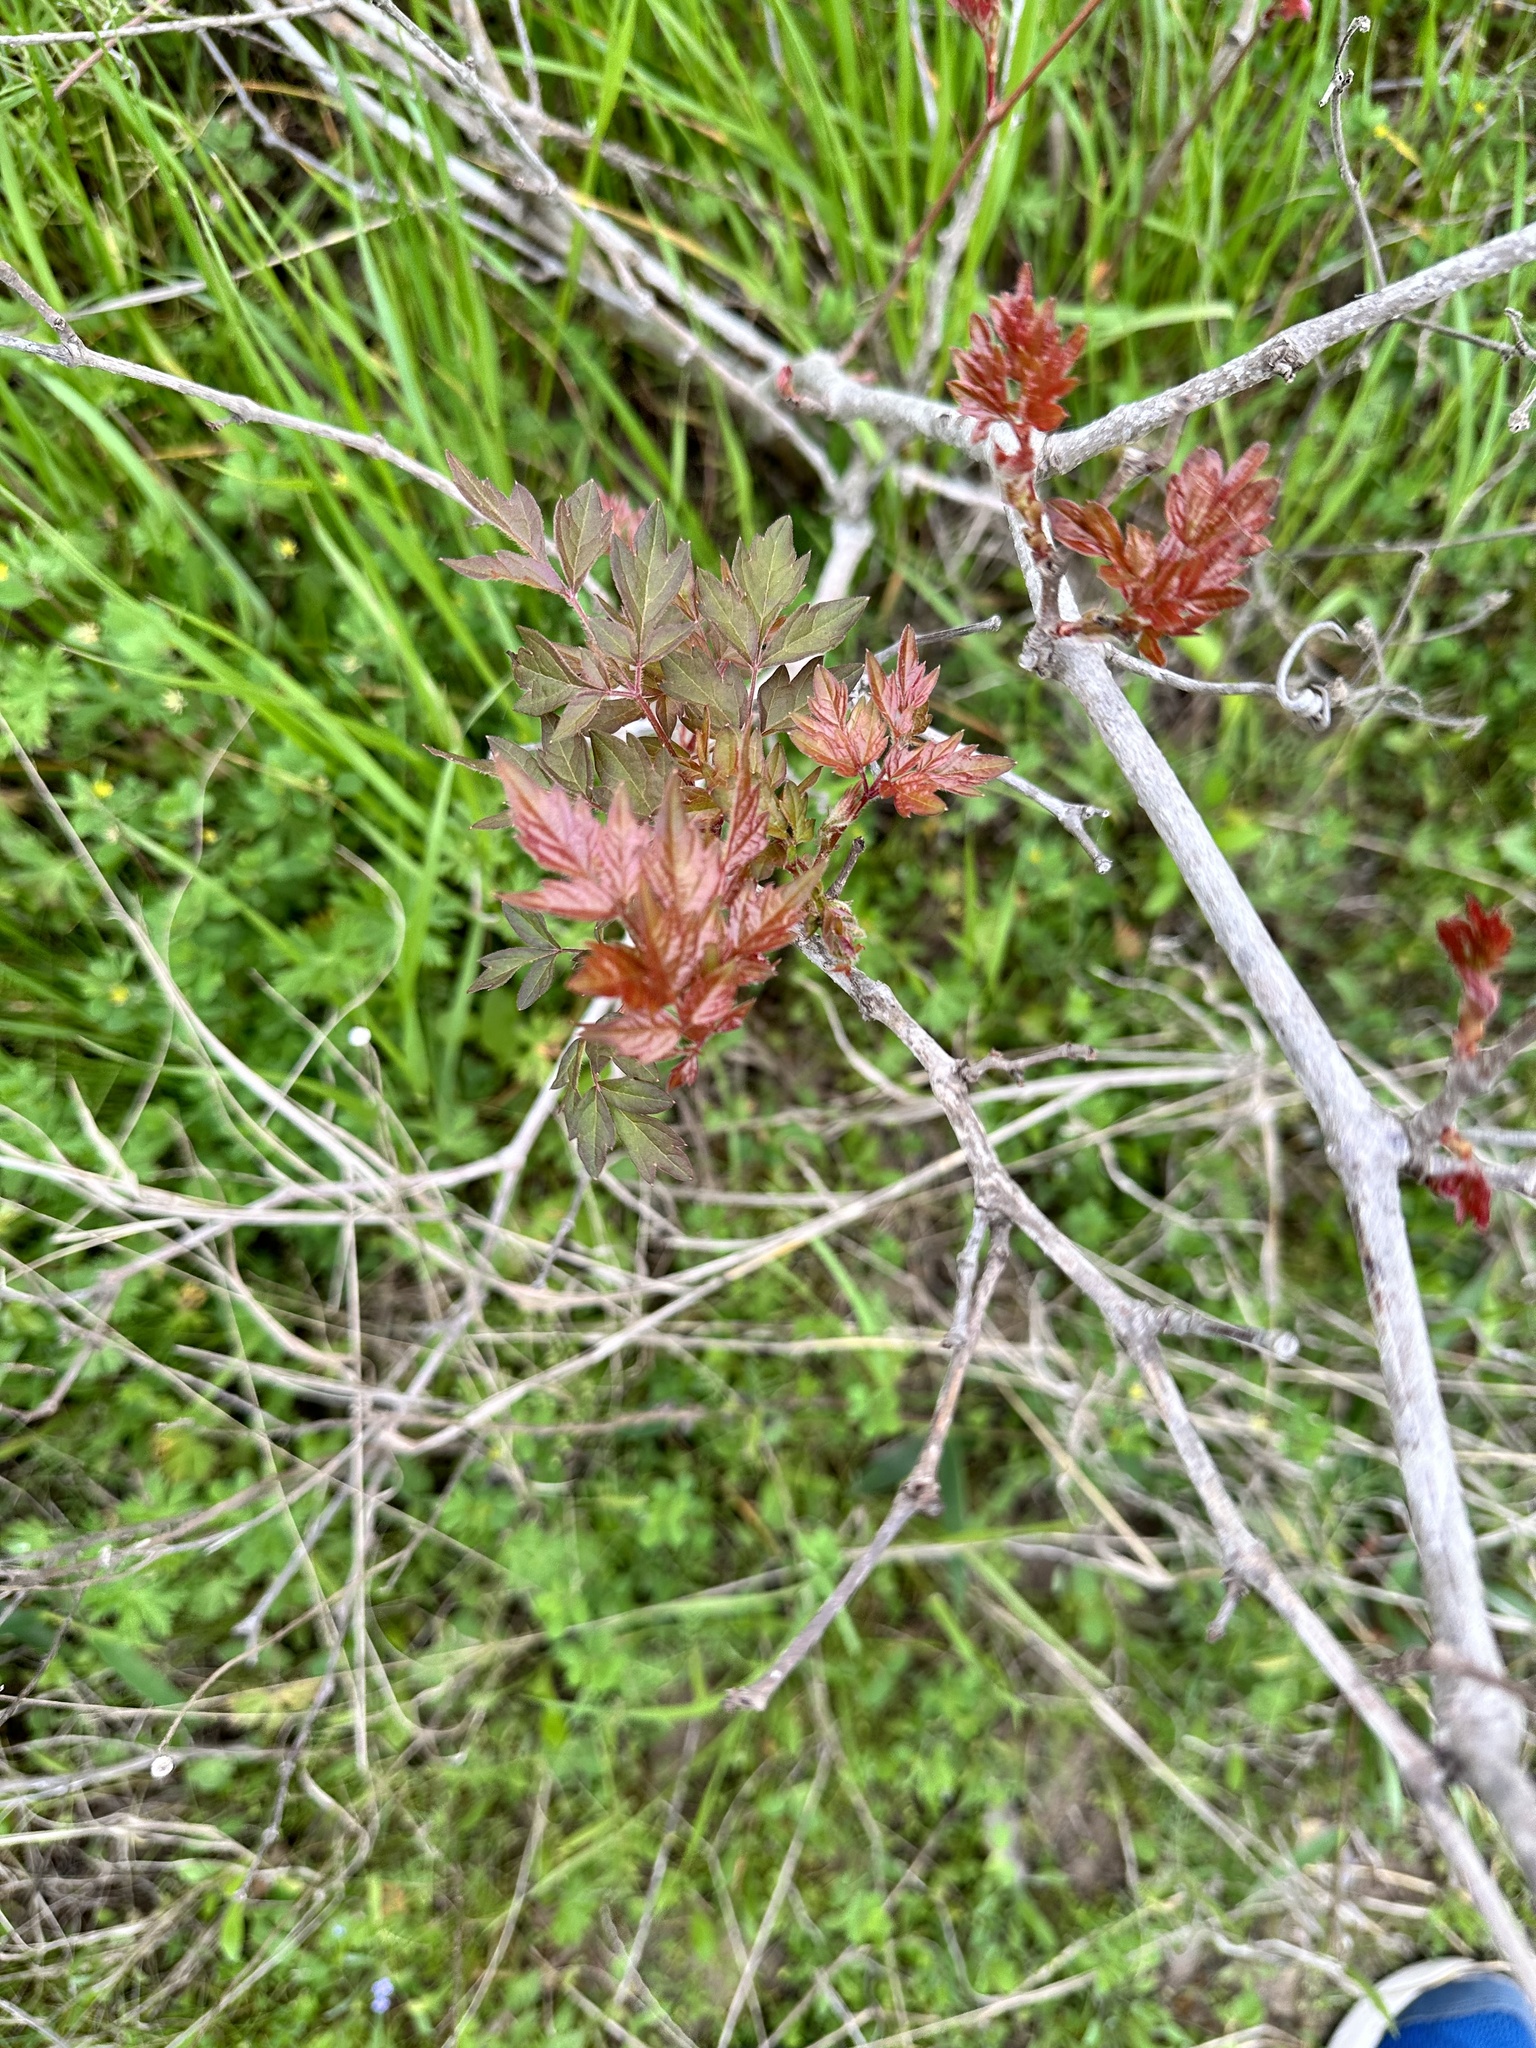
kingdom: Plantae
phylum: Tracheophyta
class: Magnoliopsida
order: Vitales
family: Vitaceae
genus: Nekemias
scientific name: Nekemias arborea
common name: Peppervine
